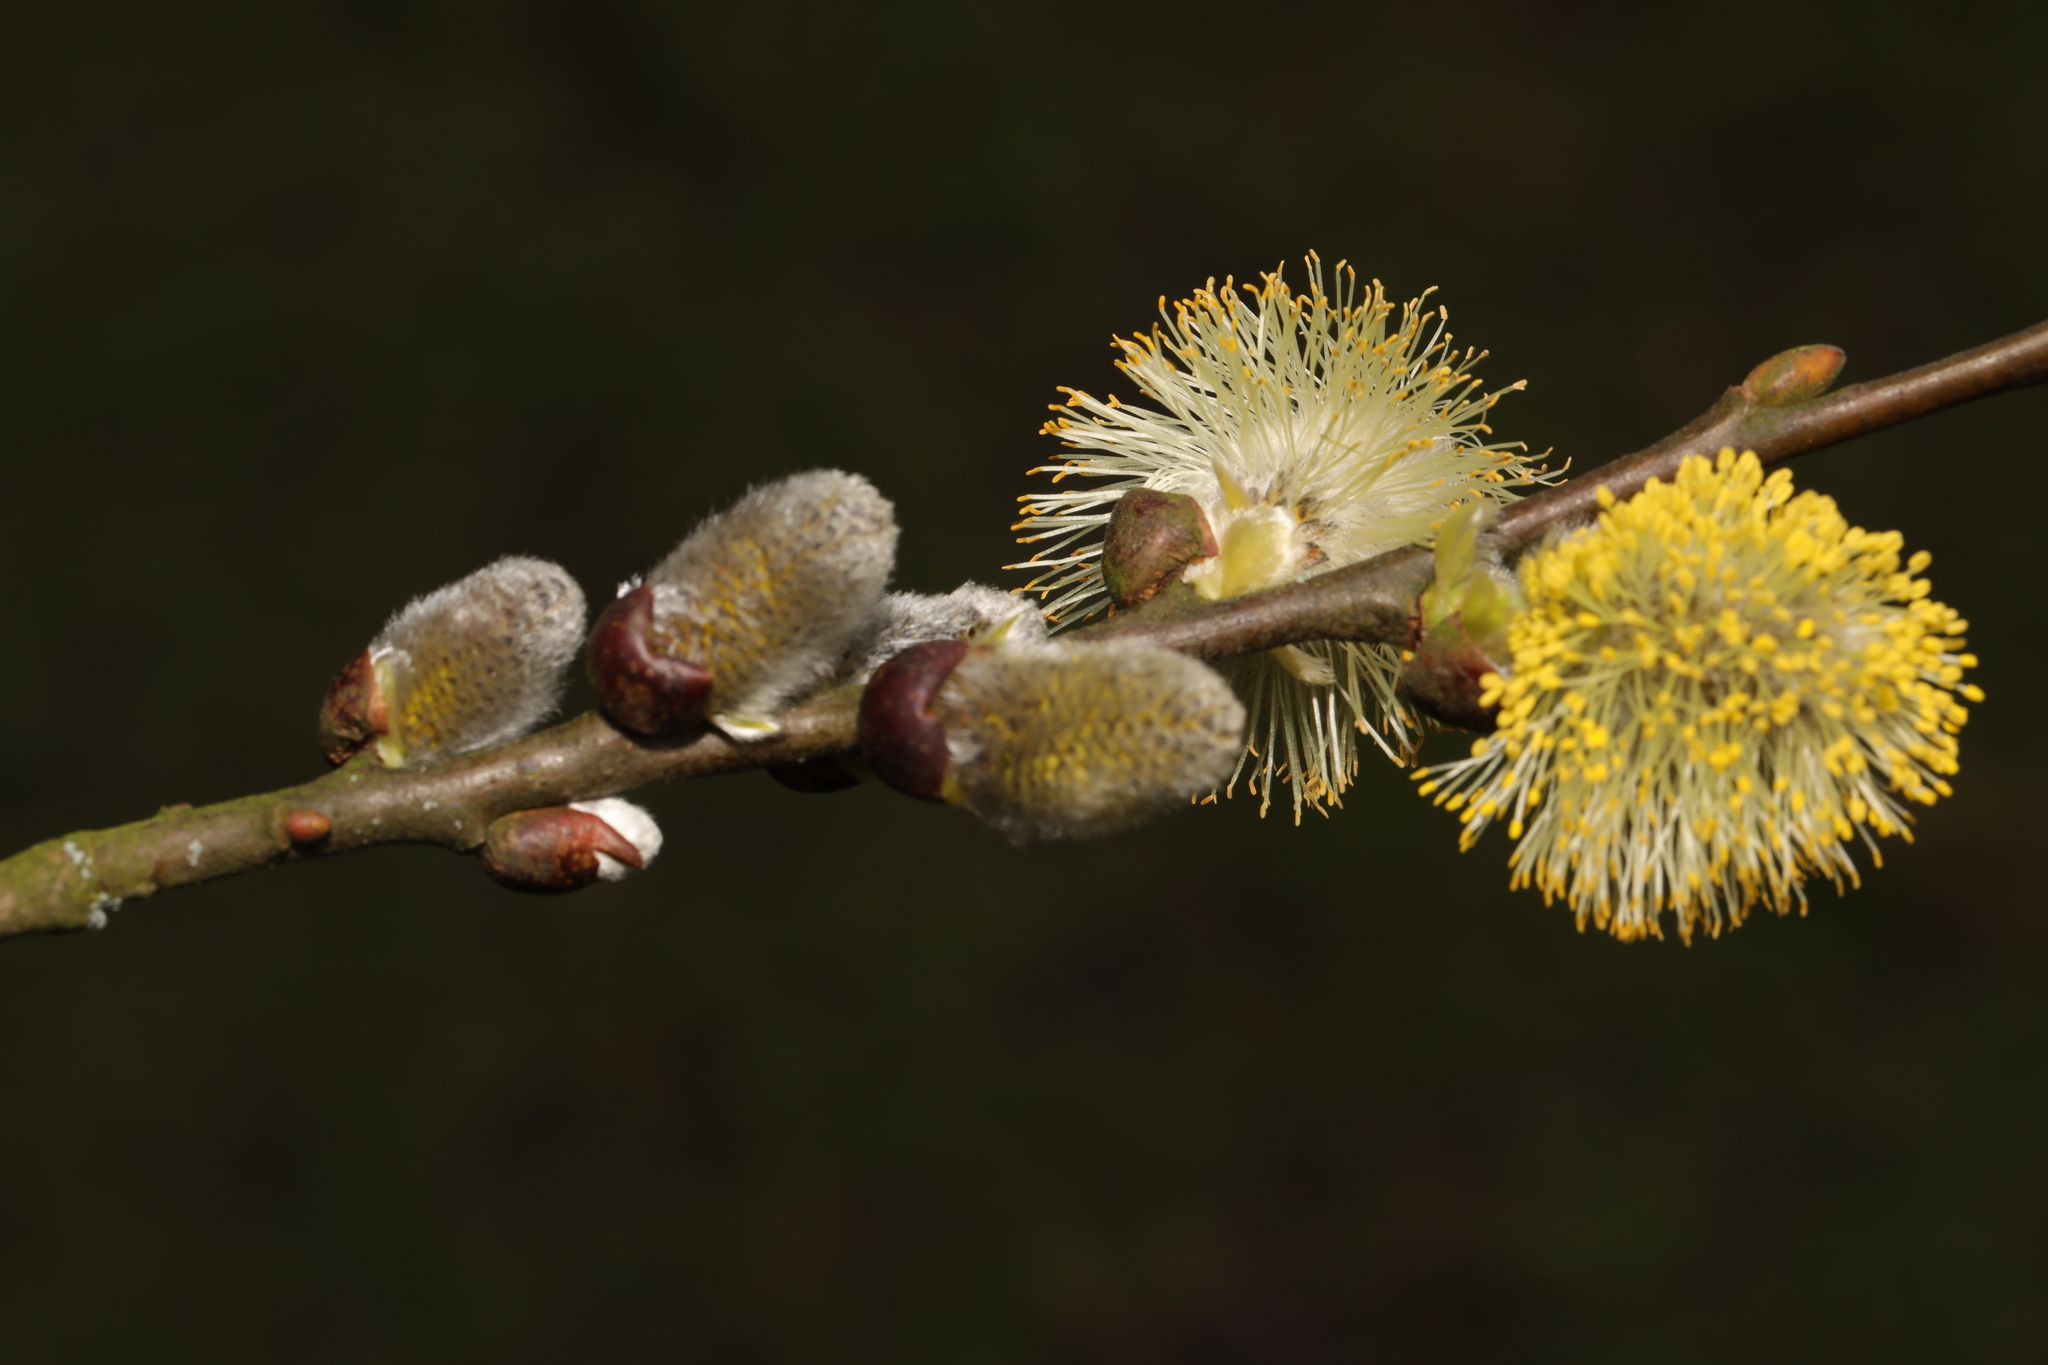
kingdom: Plantae
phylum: Tracheophyta
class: Magnoliopsida
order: Malpighiales
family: Salicaceae
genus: Salix
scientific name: Salix caprea
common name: Goat willow
